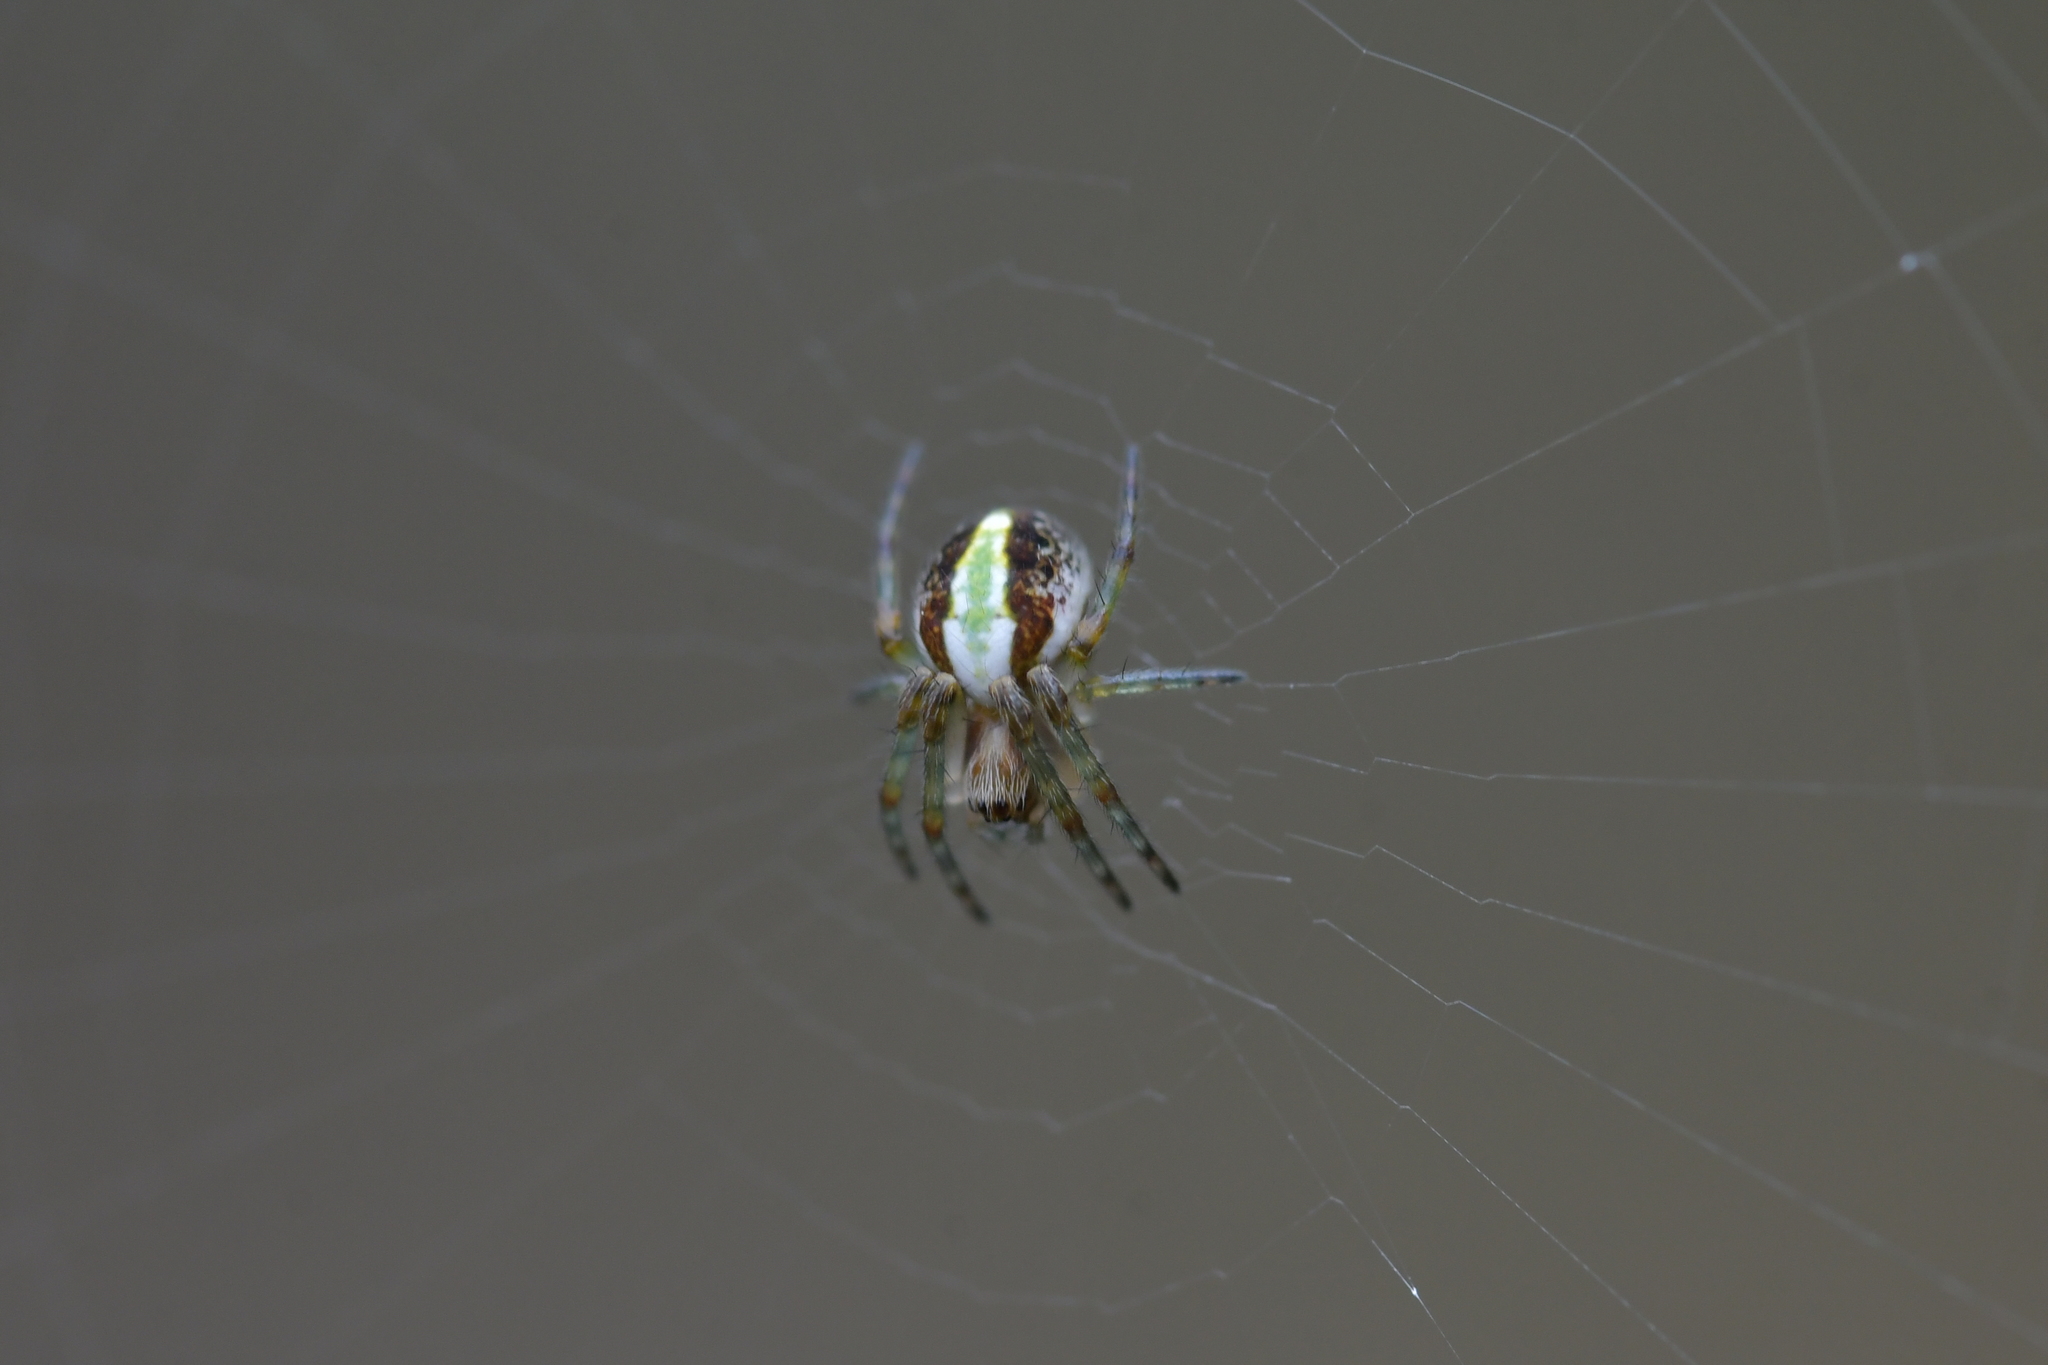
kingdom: Animalia
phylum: Arthropoda
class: Arachnida
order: Araneae
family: Araneidae
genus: Novaranea
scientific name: Novaranea queribunda
